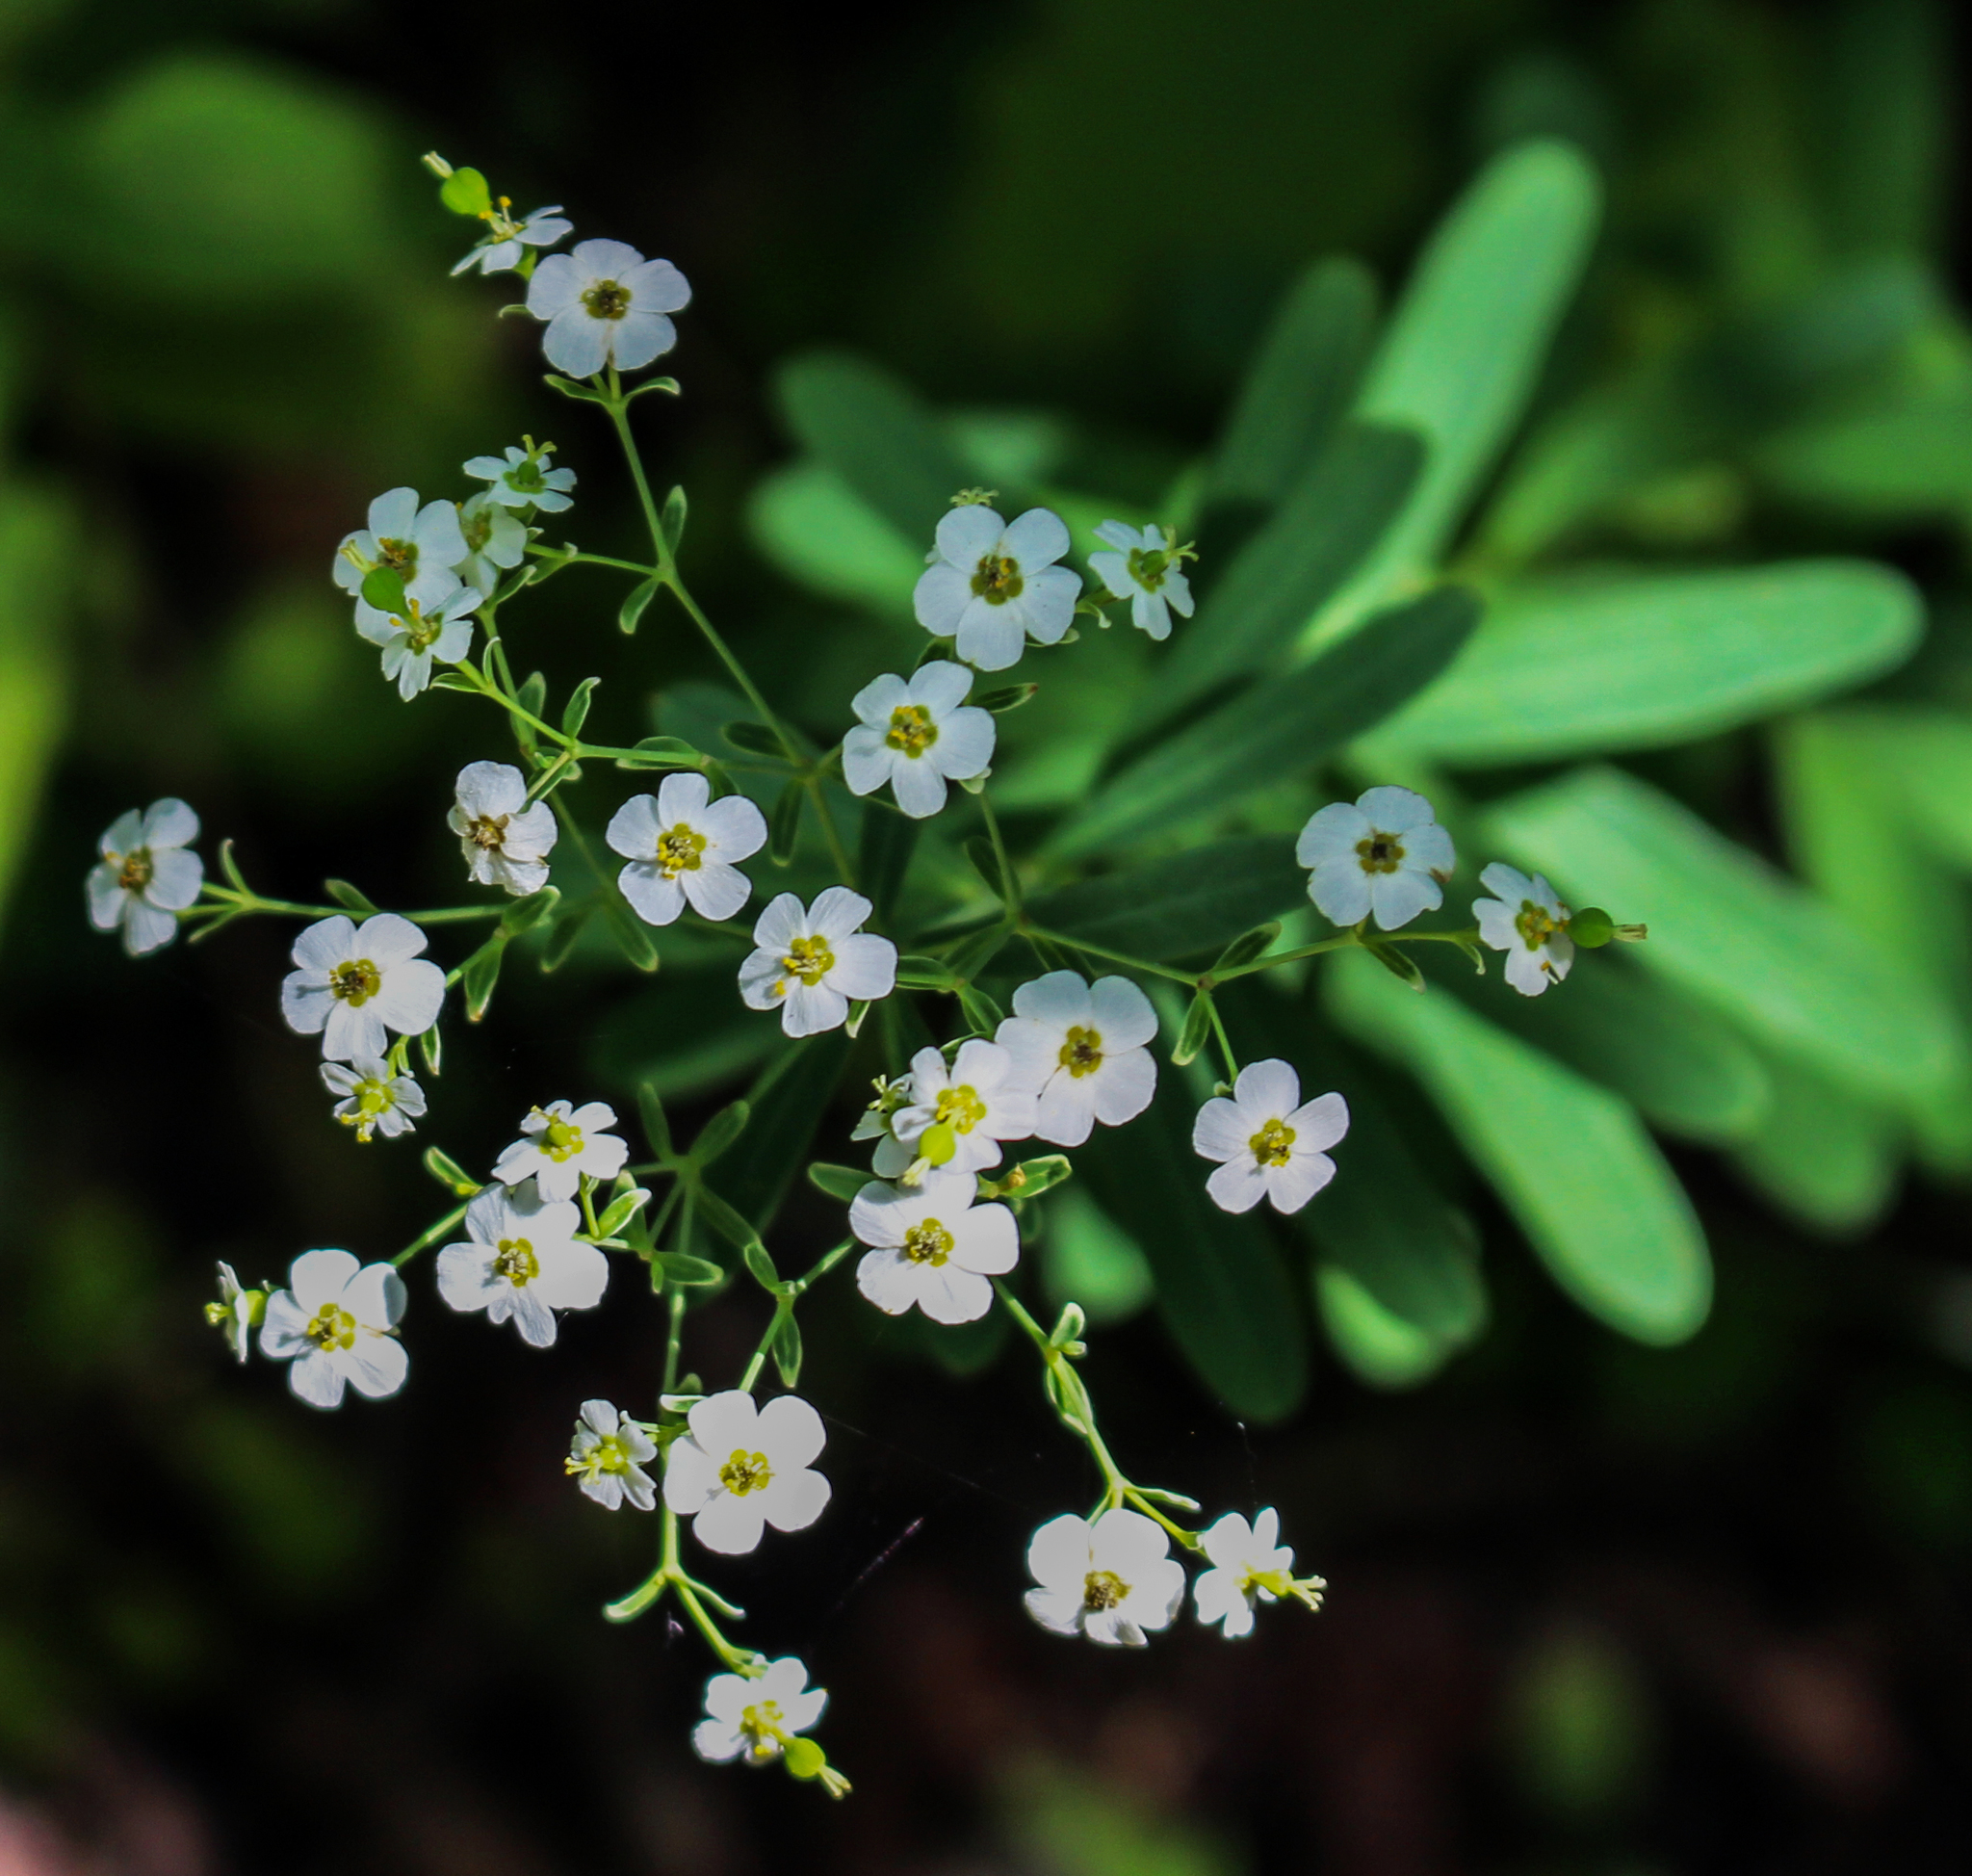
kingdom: Plantae
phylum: Tracheophyta
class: Magnoliopsida
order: Malpighiales
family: Euphorbiaceae
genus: Euphorbia
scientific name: Euphorbia corollata
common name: Flowering spurge
